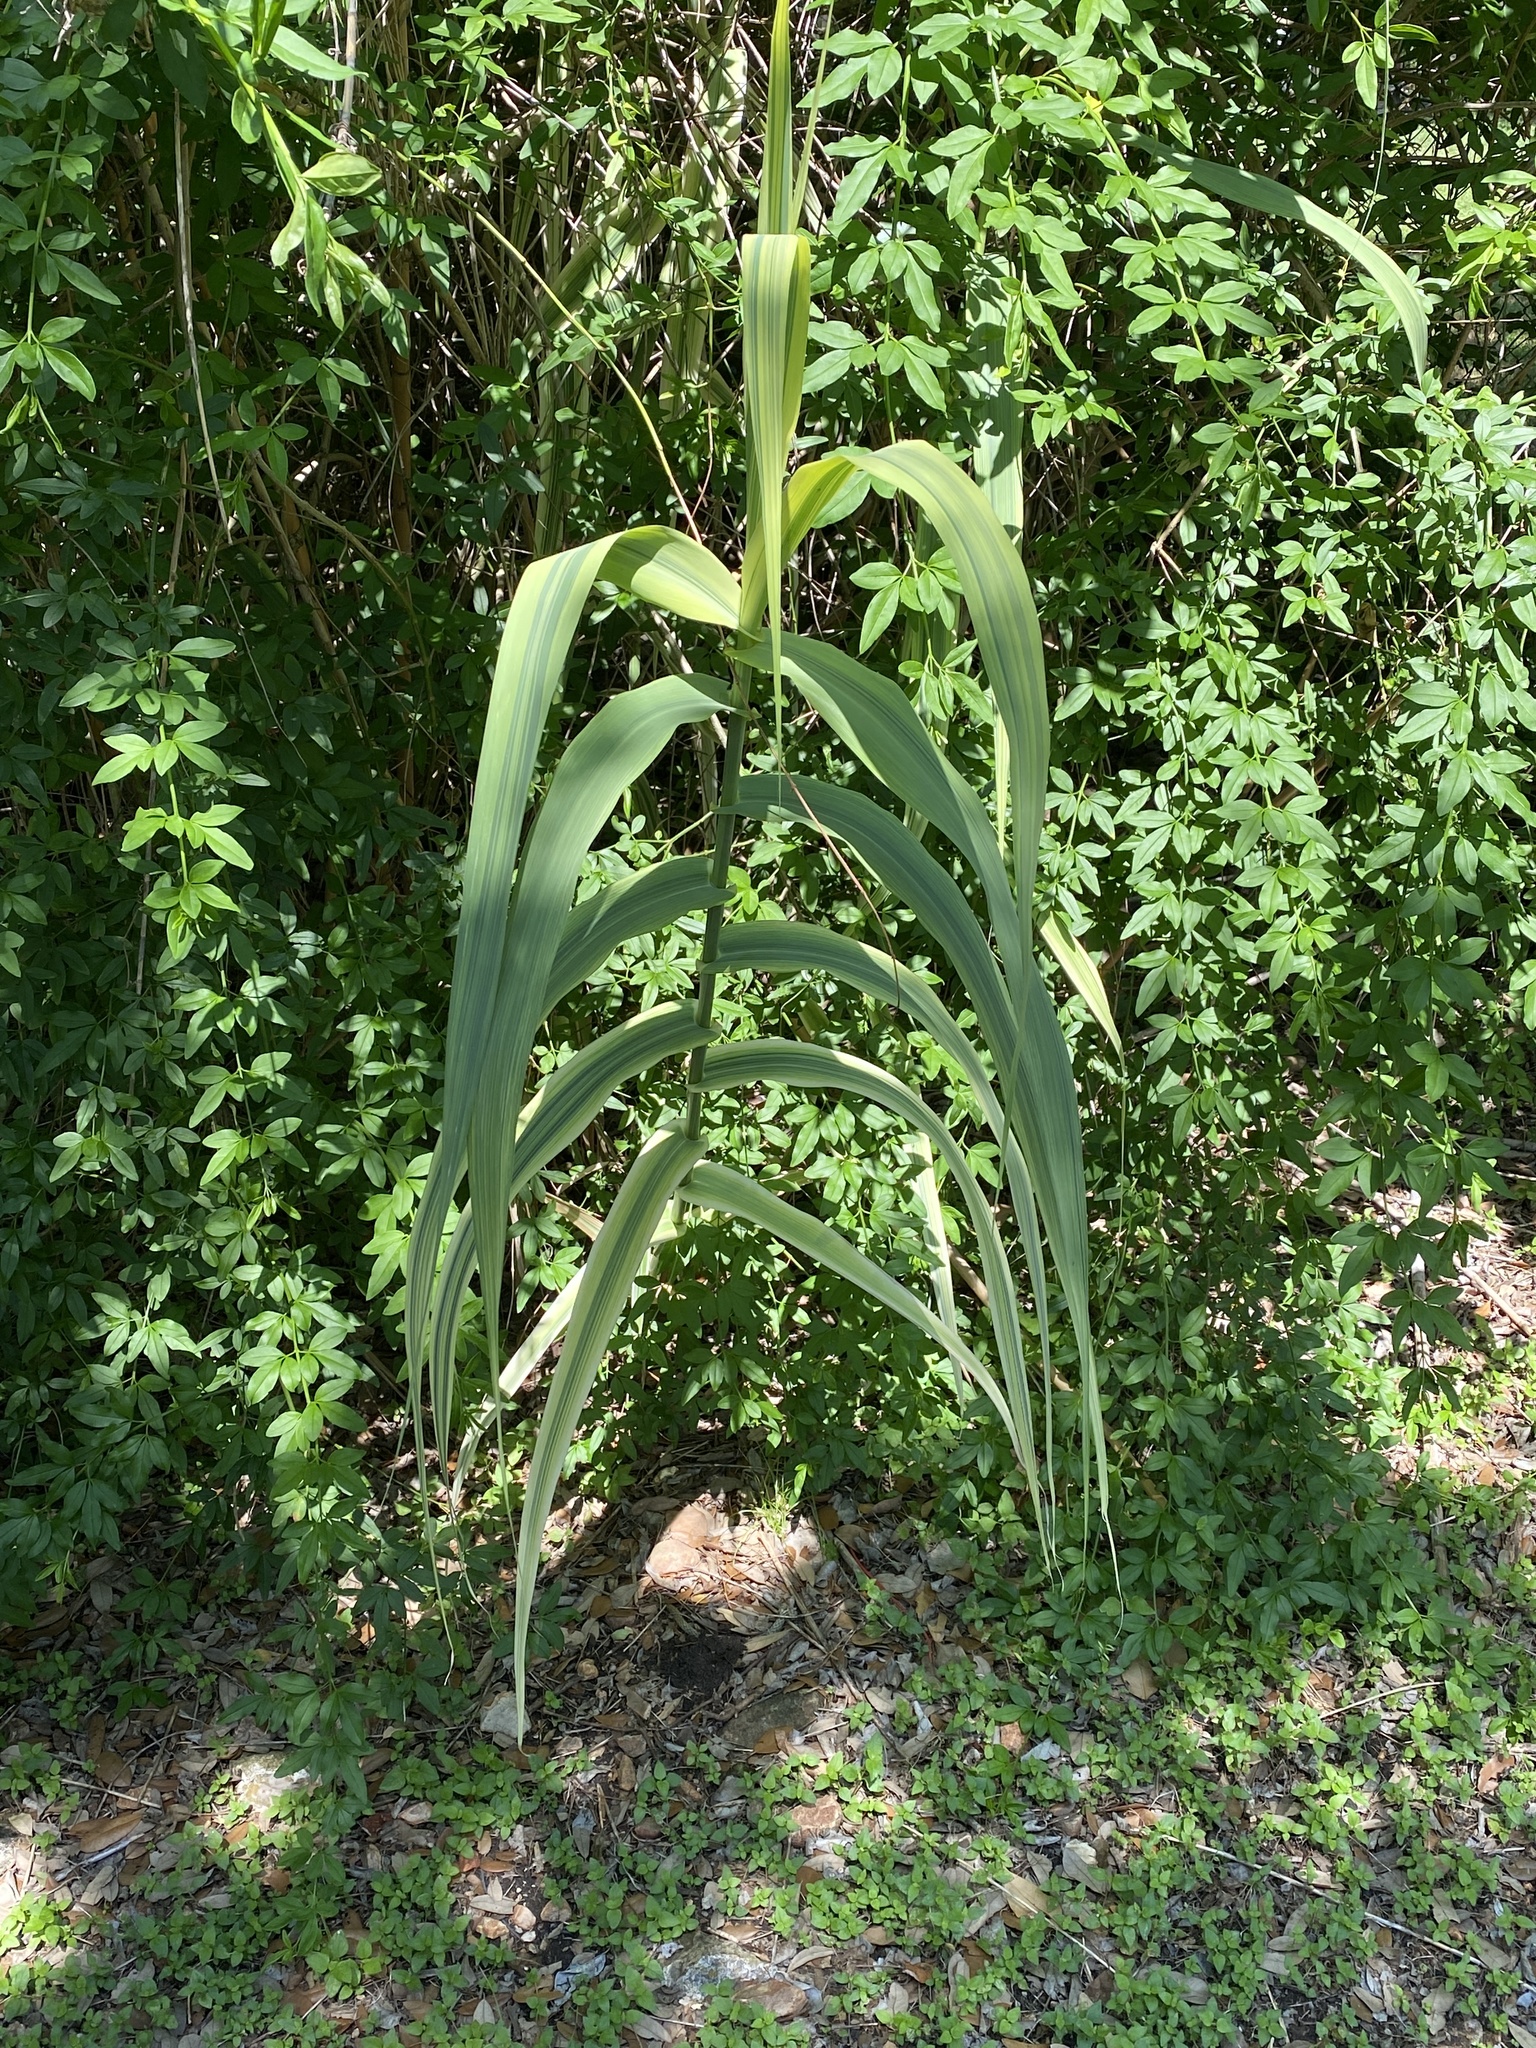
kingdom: Plantae
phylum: Tracheophyta
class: Liliopsida
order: Poales
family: Poaceae
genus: Arundo
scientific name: Arundo donax
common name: Giant reed
